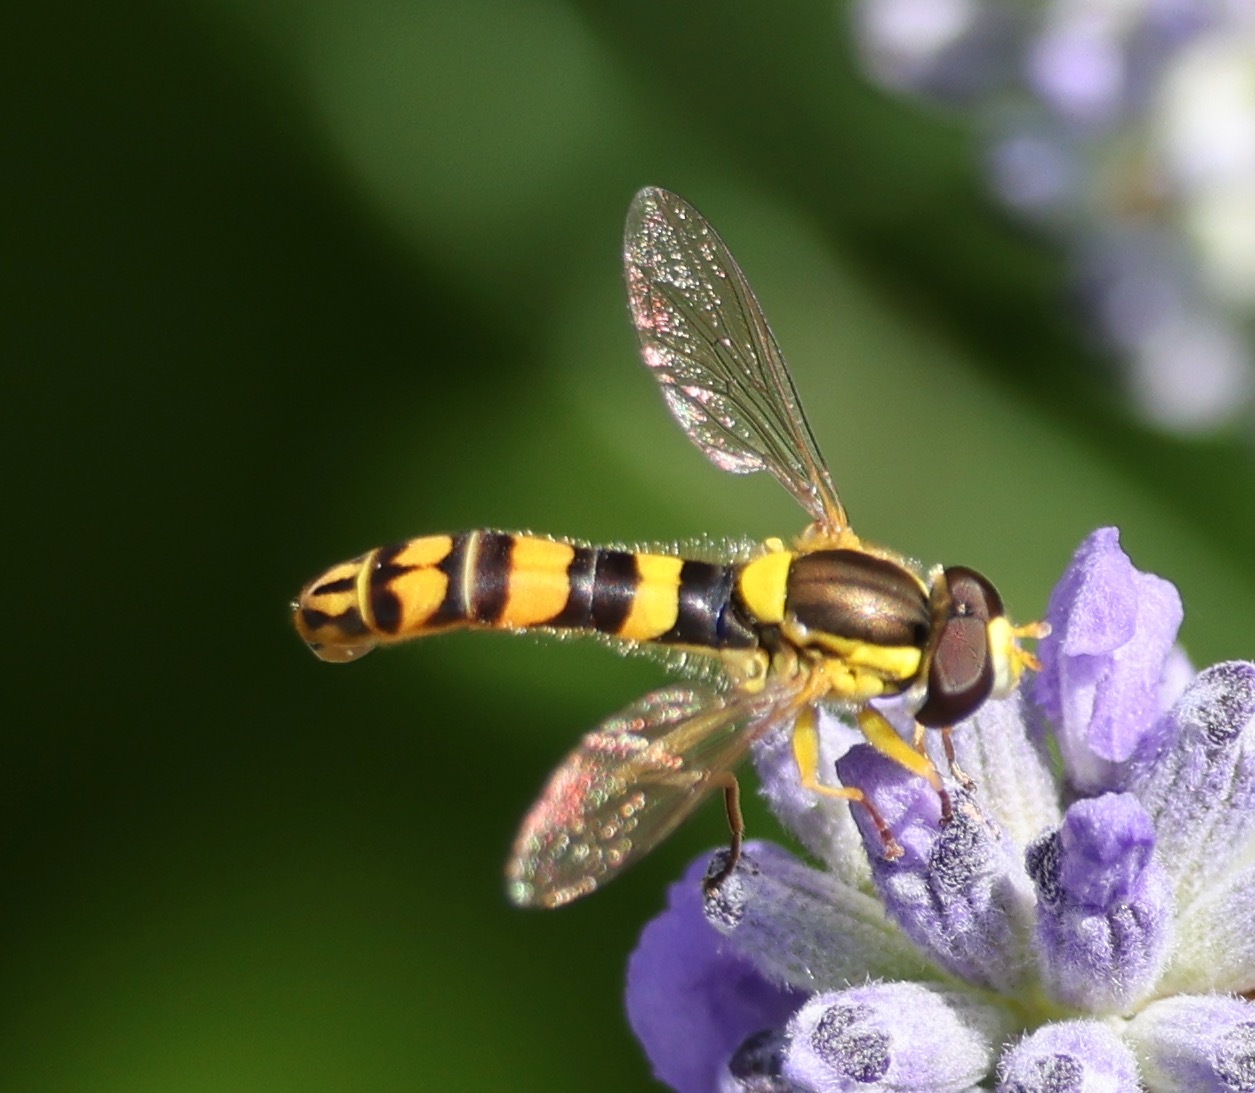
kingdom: Animalia
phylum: Arthropoda
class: Insecta
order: Diptera
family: Syrphidae
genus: Sphaerophoria
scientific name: Sphaerophoria scripta
